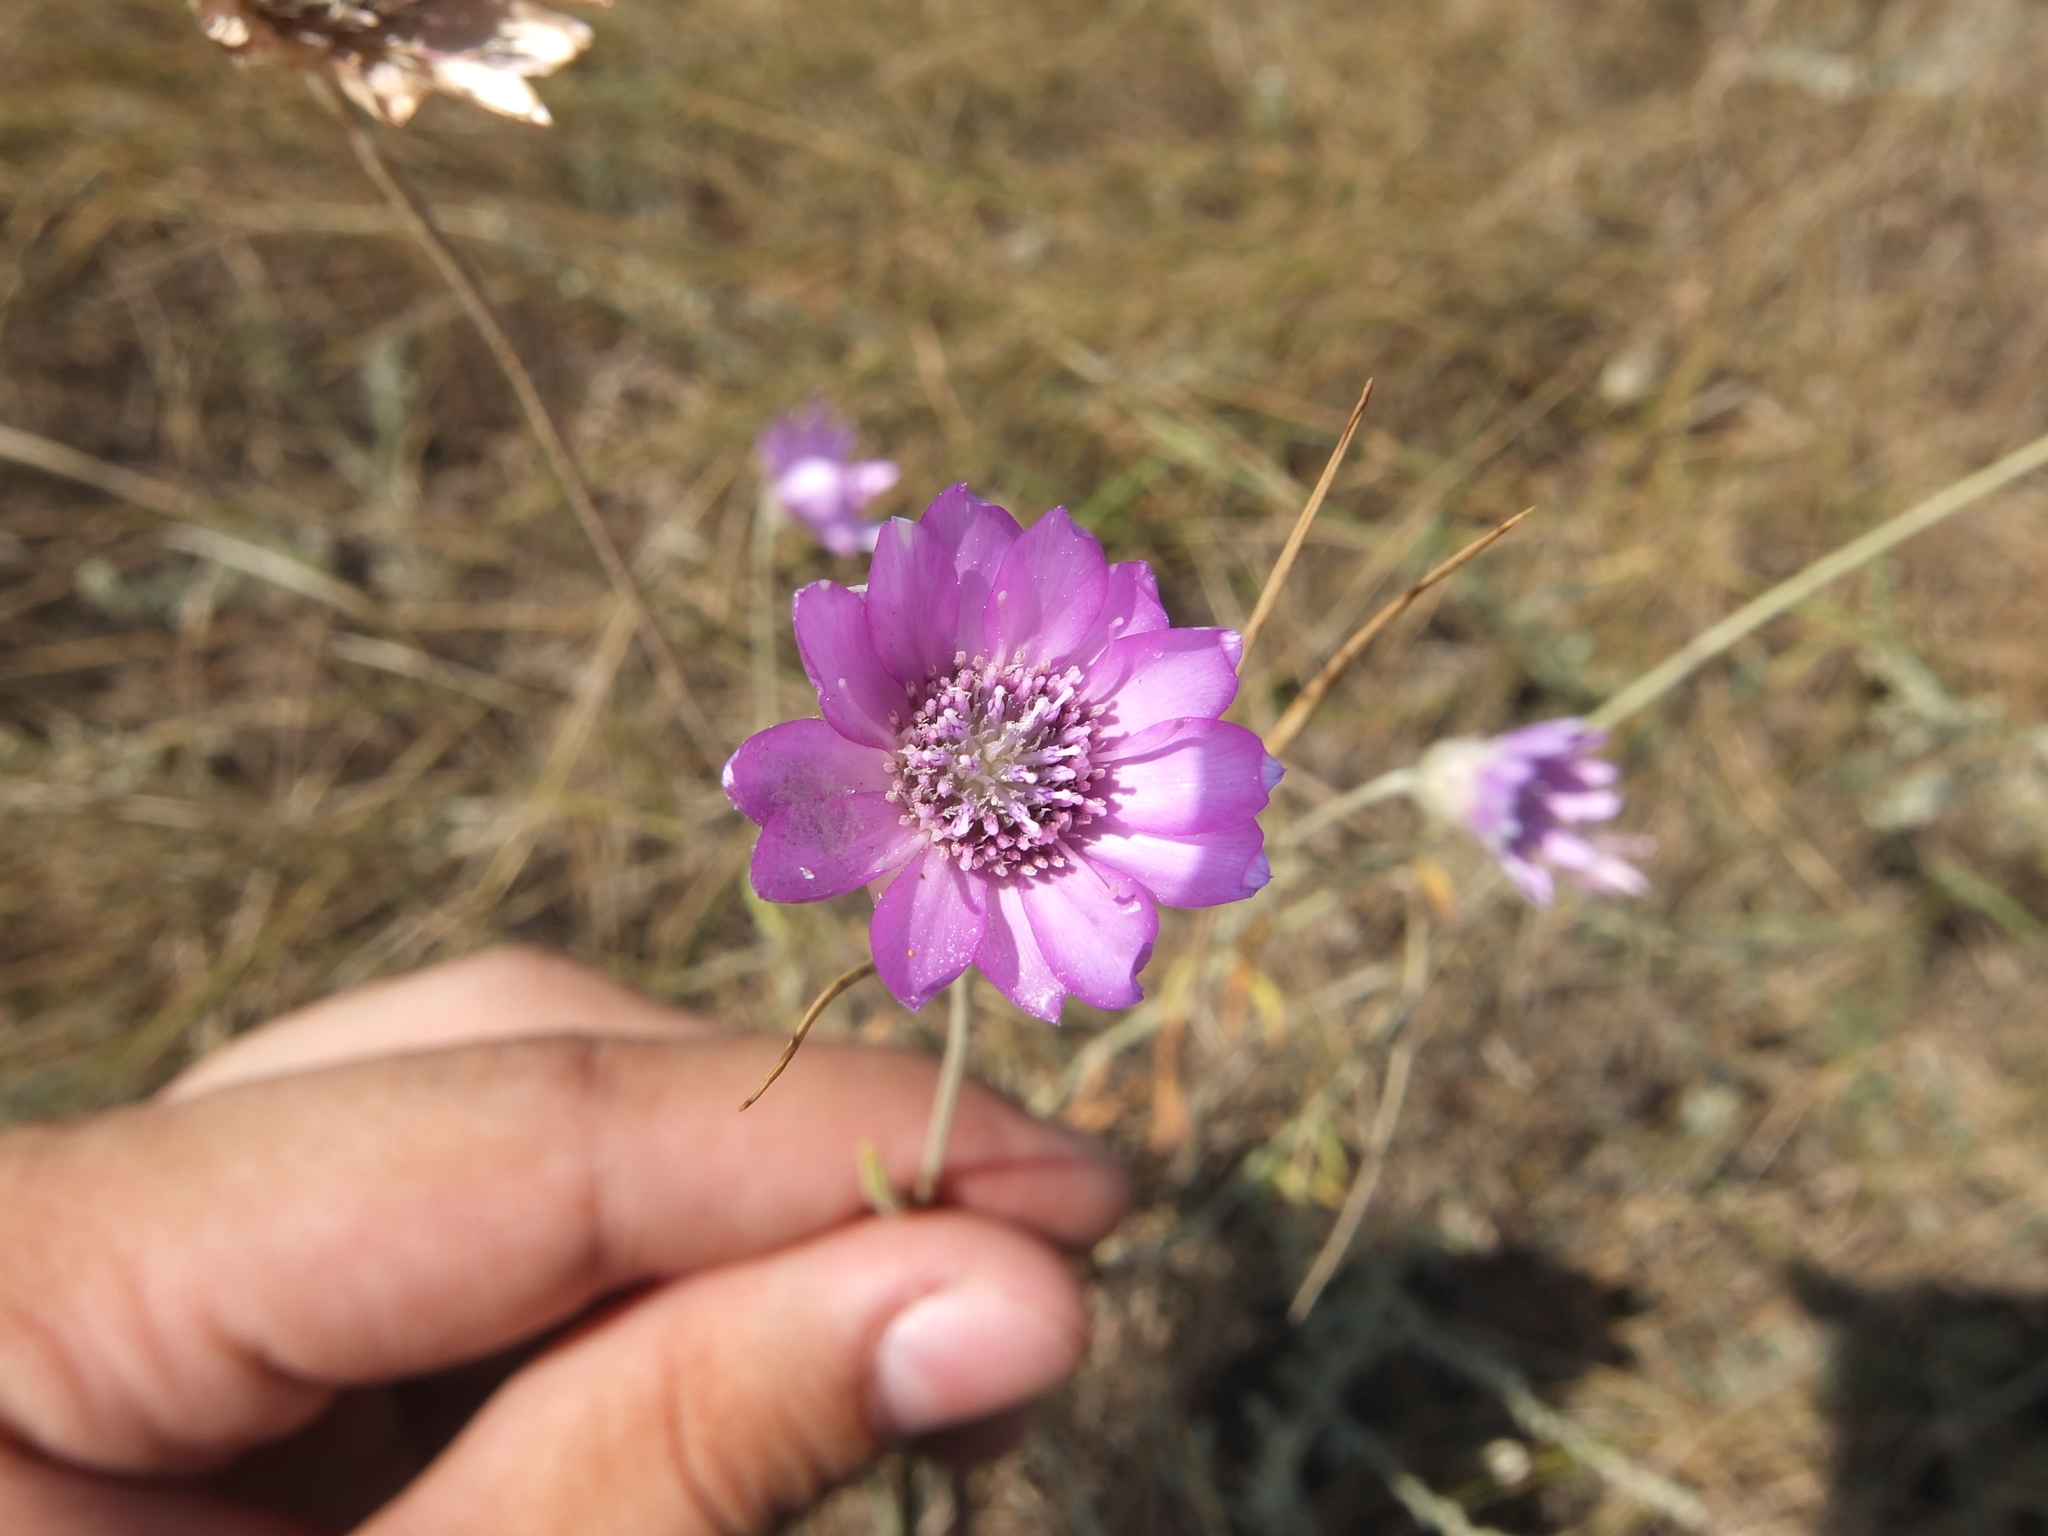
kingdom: Plantae
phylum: Tracheophyta
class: Magnoliopsida
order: Asterales
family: Asteraceae
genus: Xeranthemum
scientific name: Xeranthemum annuum
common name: Immortelle
